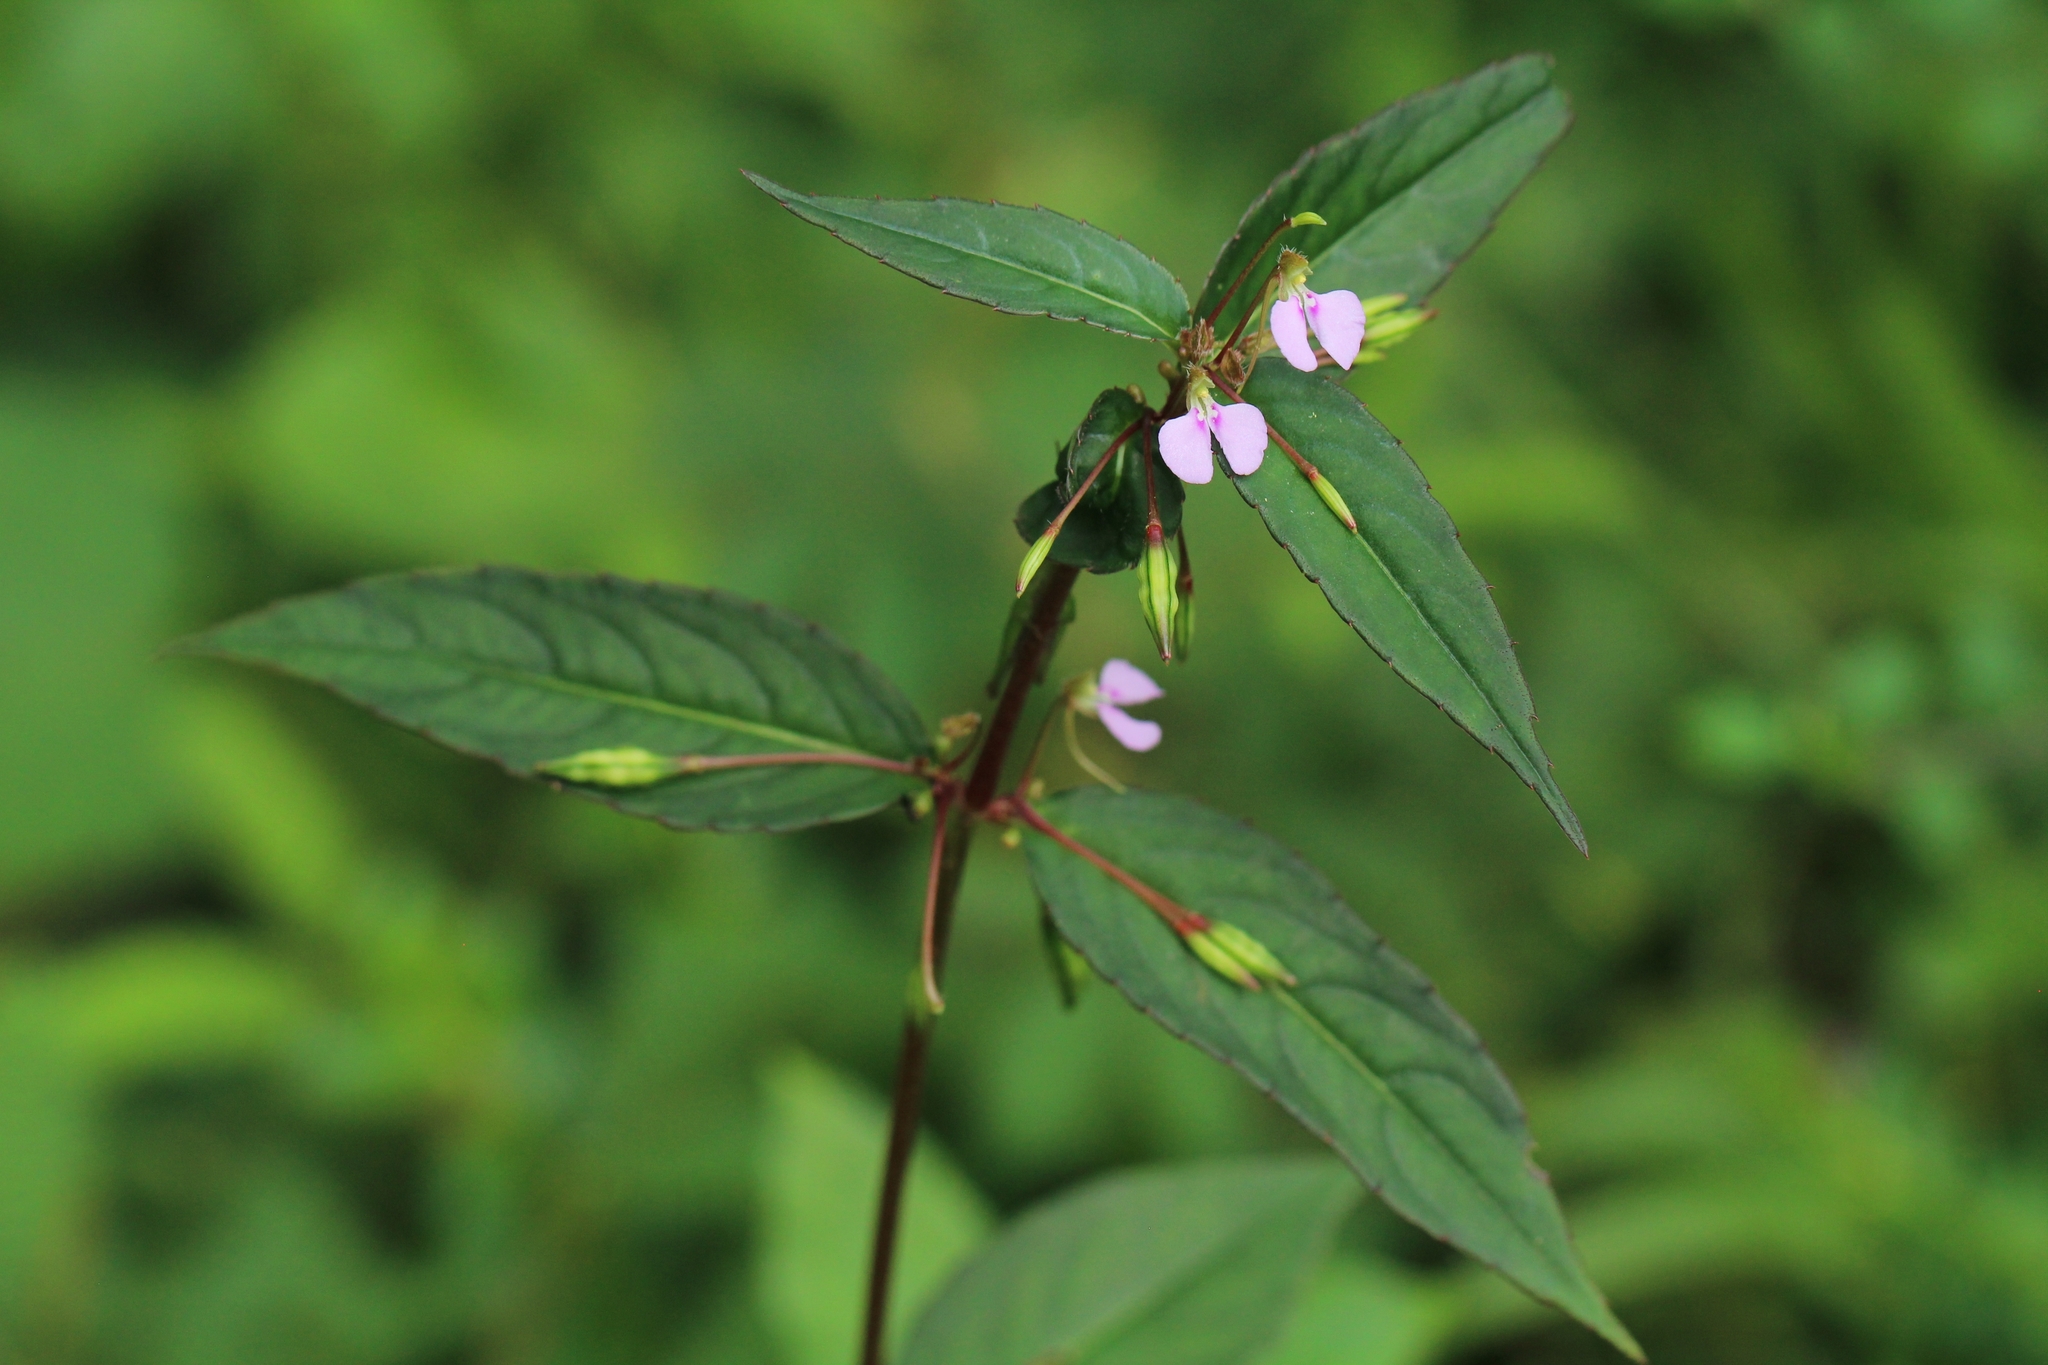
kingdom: Plantae
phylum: Tracheophyta
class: Magnoliopsida
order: Ericales
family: Balsaminaceae
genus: Impatiens
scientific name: Impatiens minor
